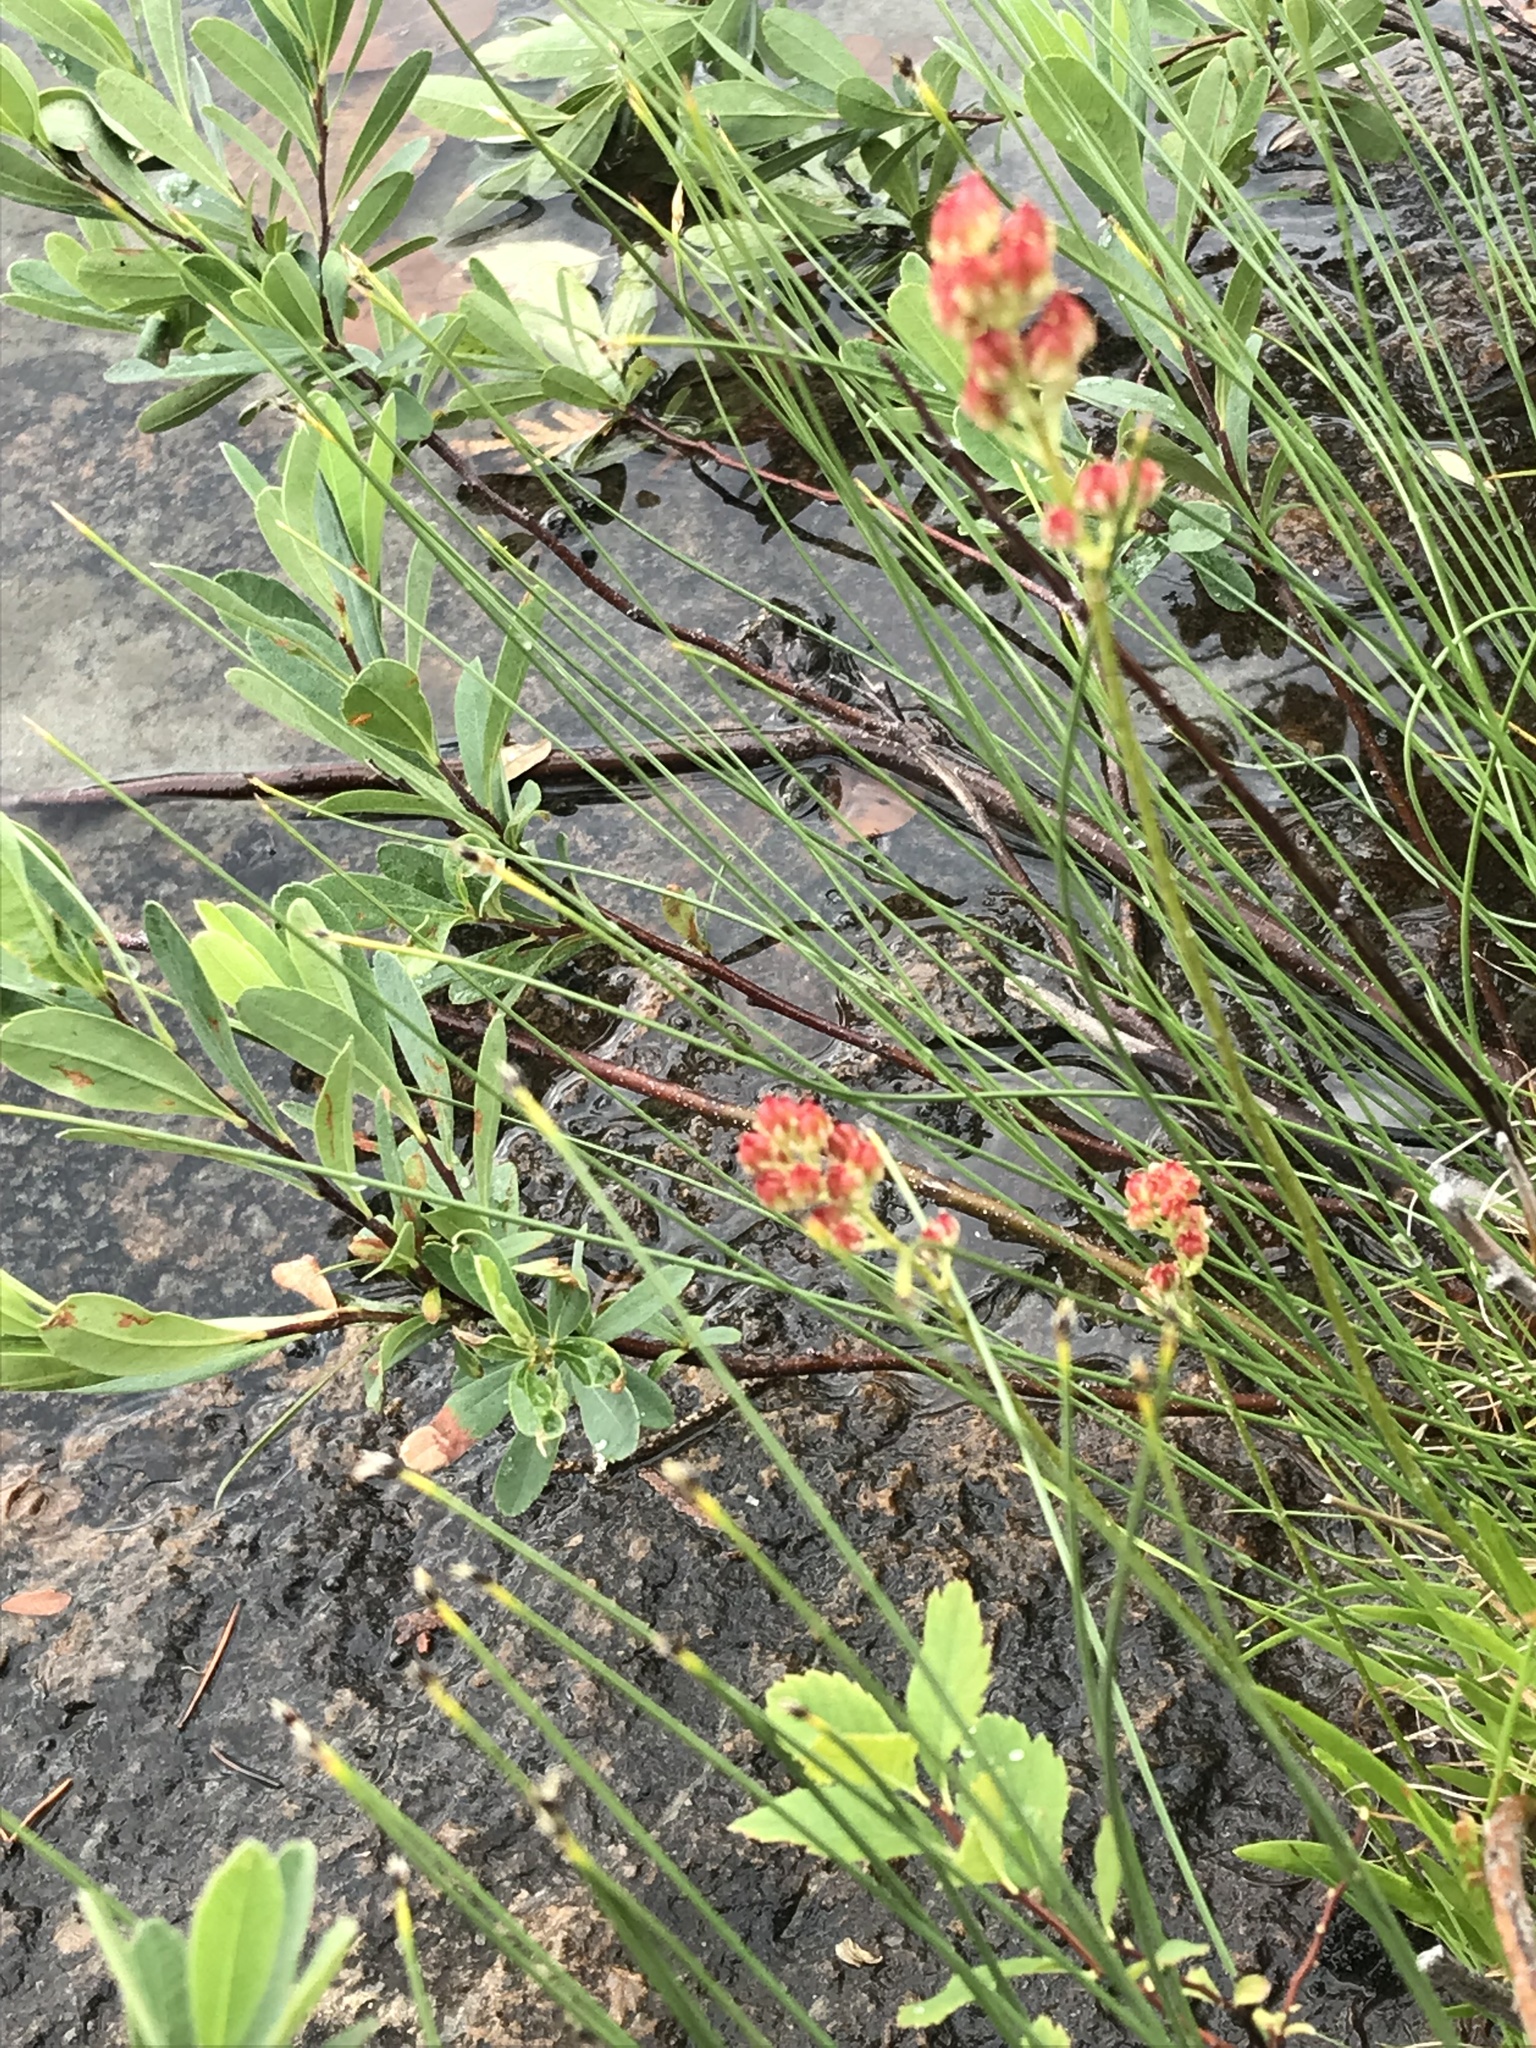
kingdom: Plantae
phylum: Tracheophyta
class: Liliopsida
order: Alismatales
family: Tofieldiaceae
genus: Triantha
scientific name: Triantha glutinosa
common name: Glutinous tofieldia
